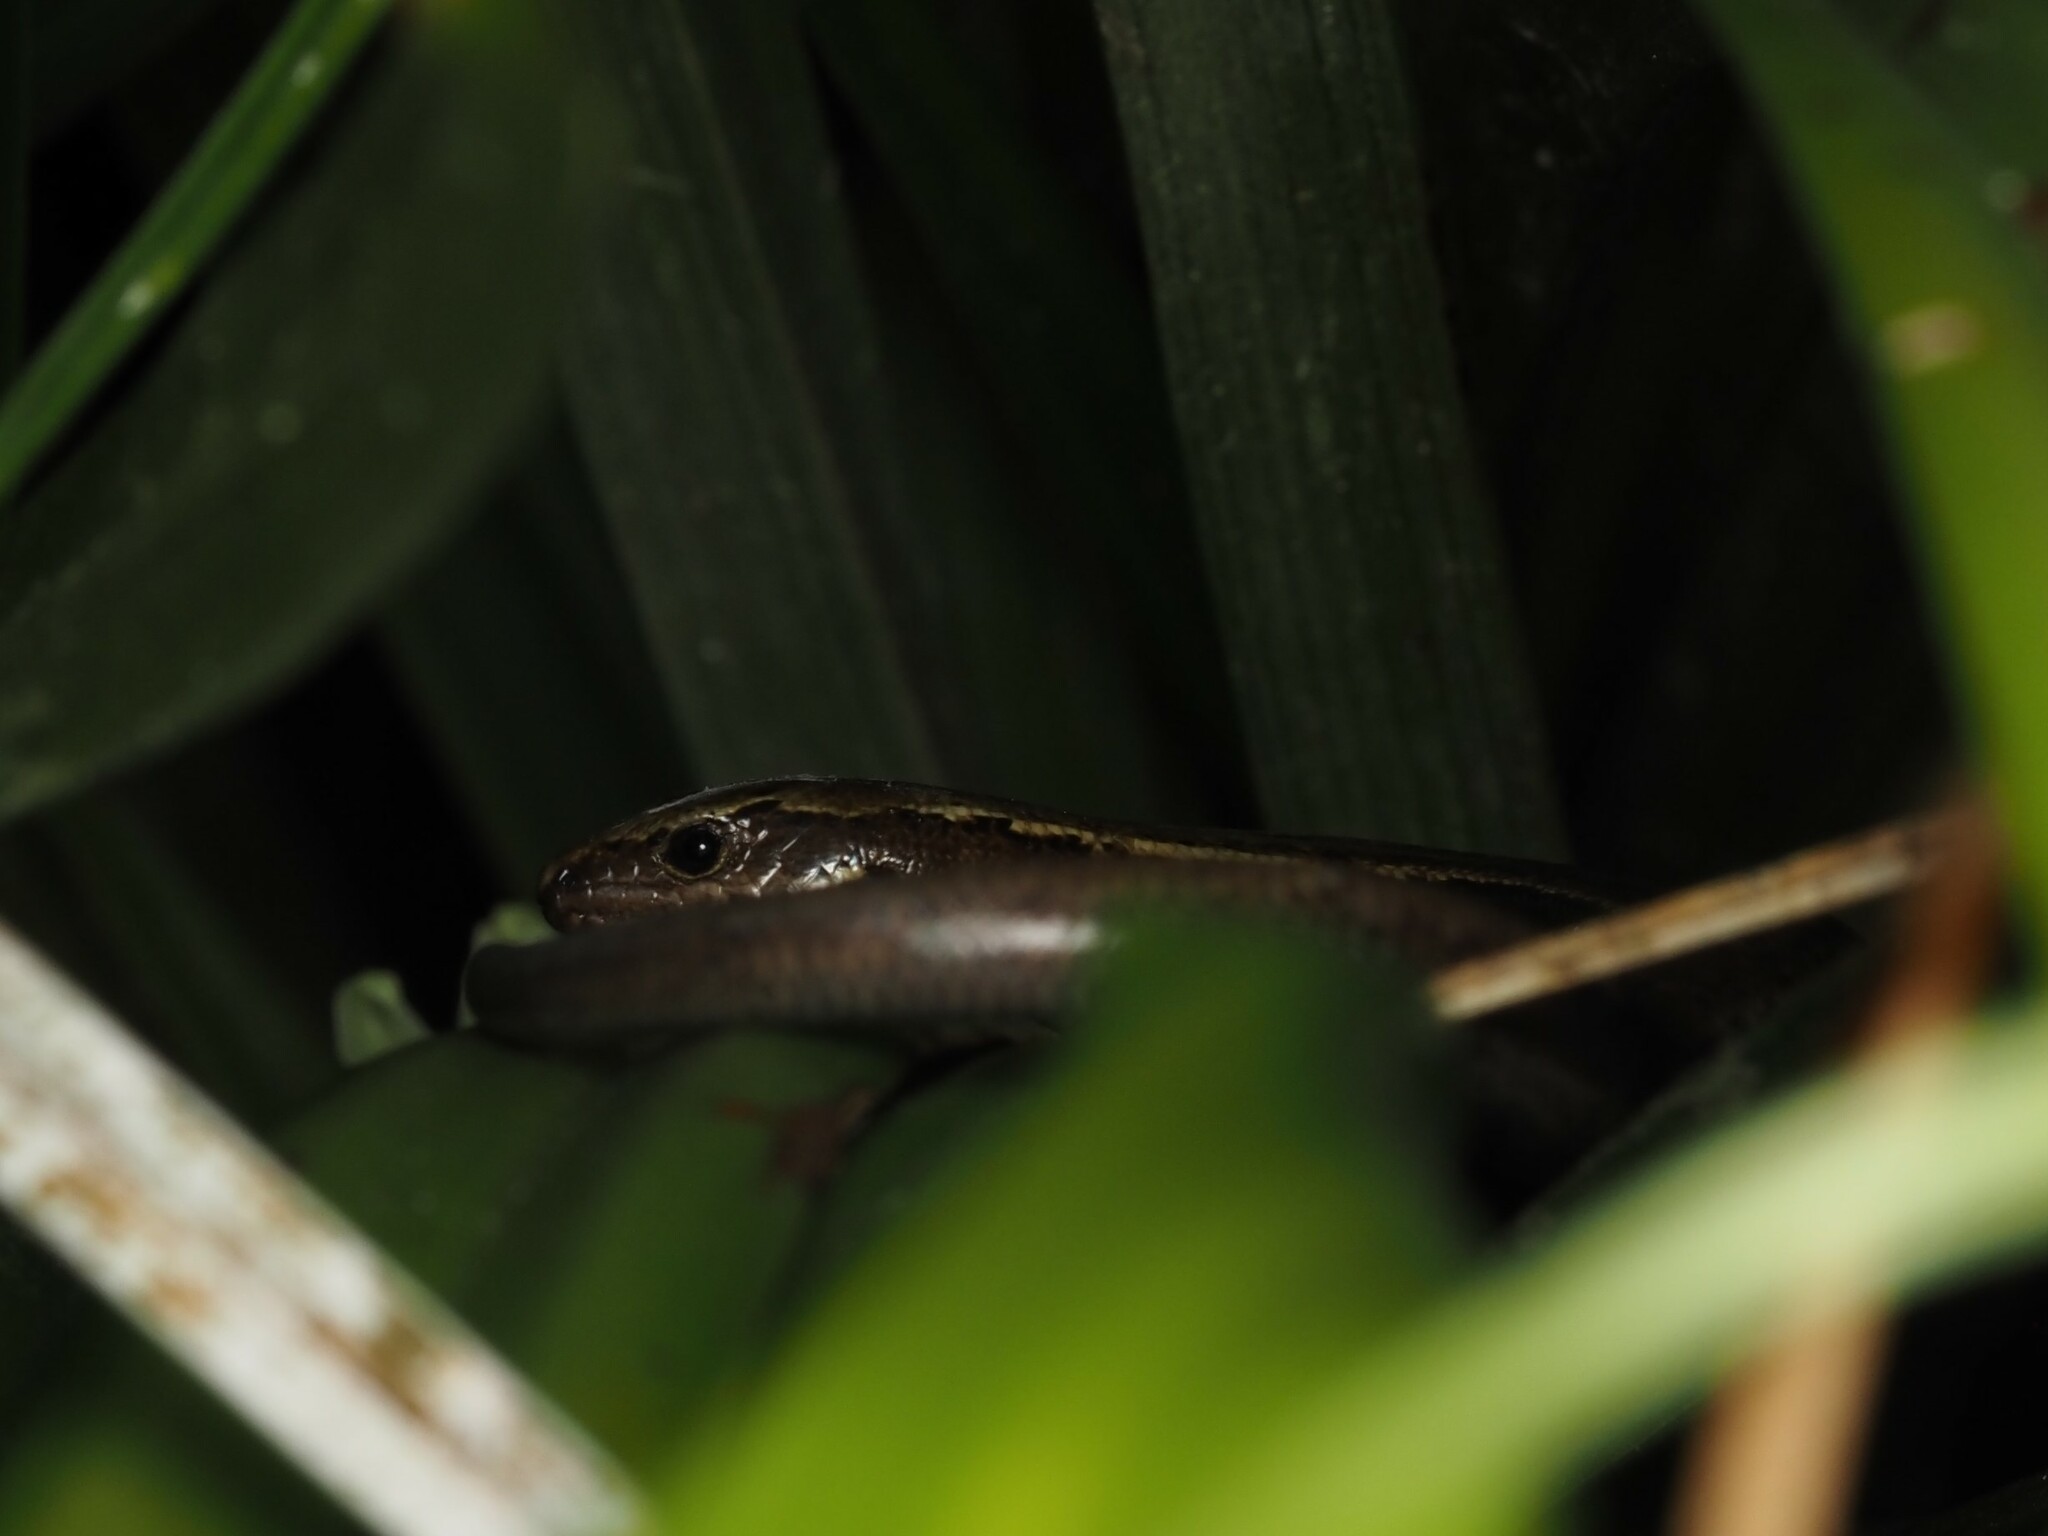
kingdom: Animalia
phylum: Chordata
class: Squamata
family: Scincidae
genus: Oligosoma
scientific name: Oligosoma zelandicum
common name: Brown skink
